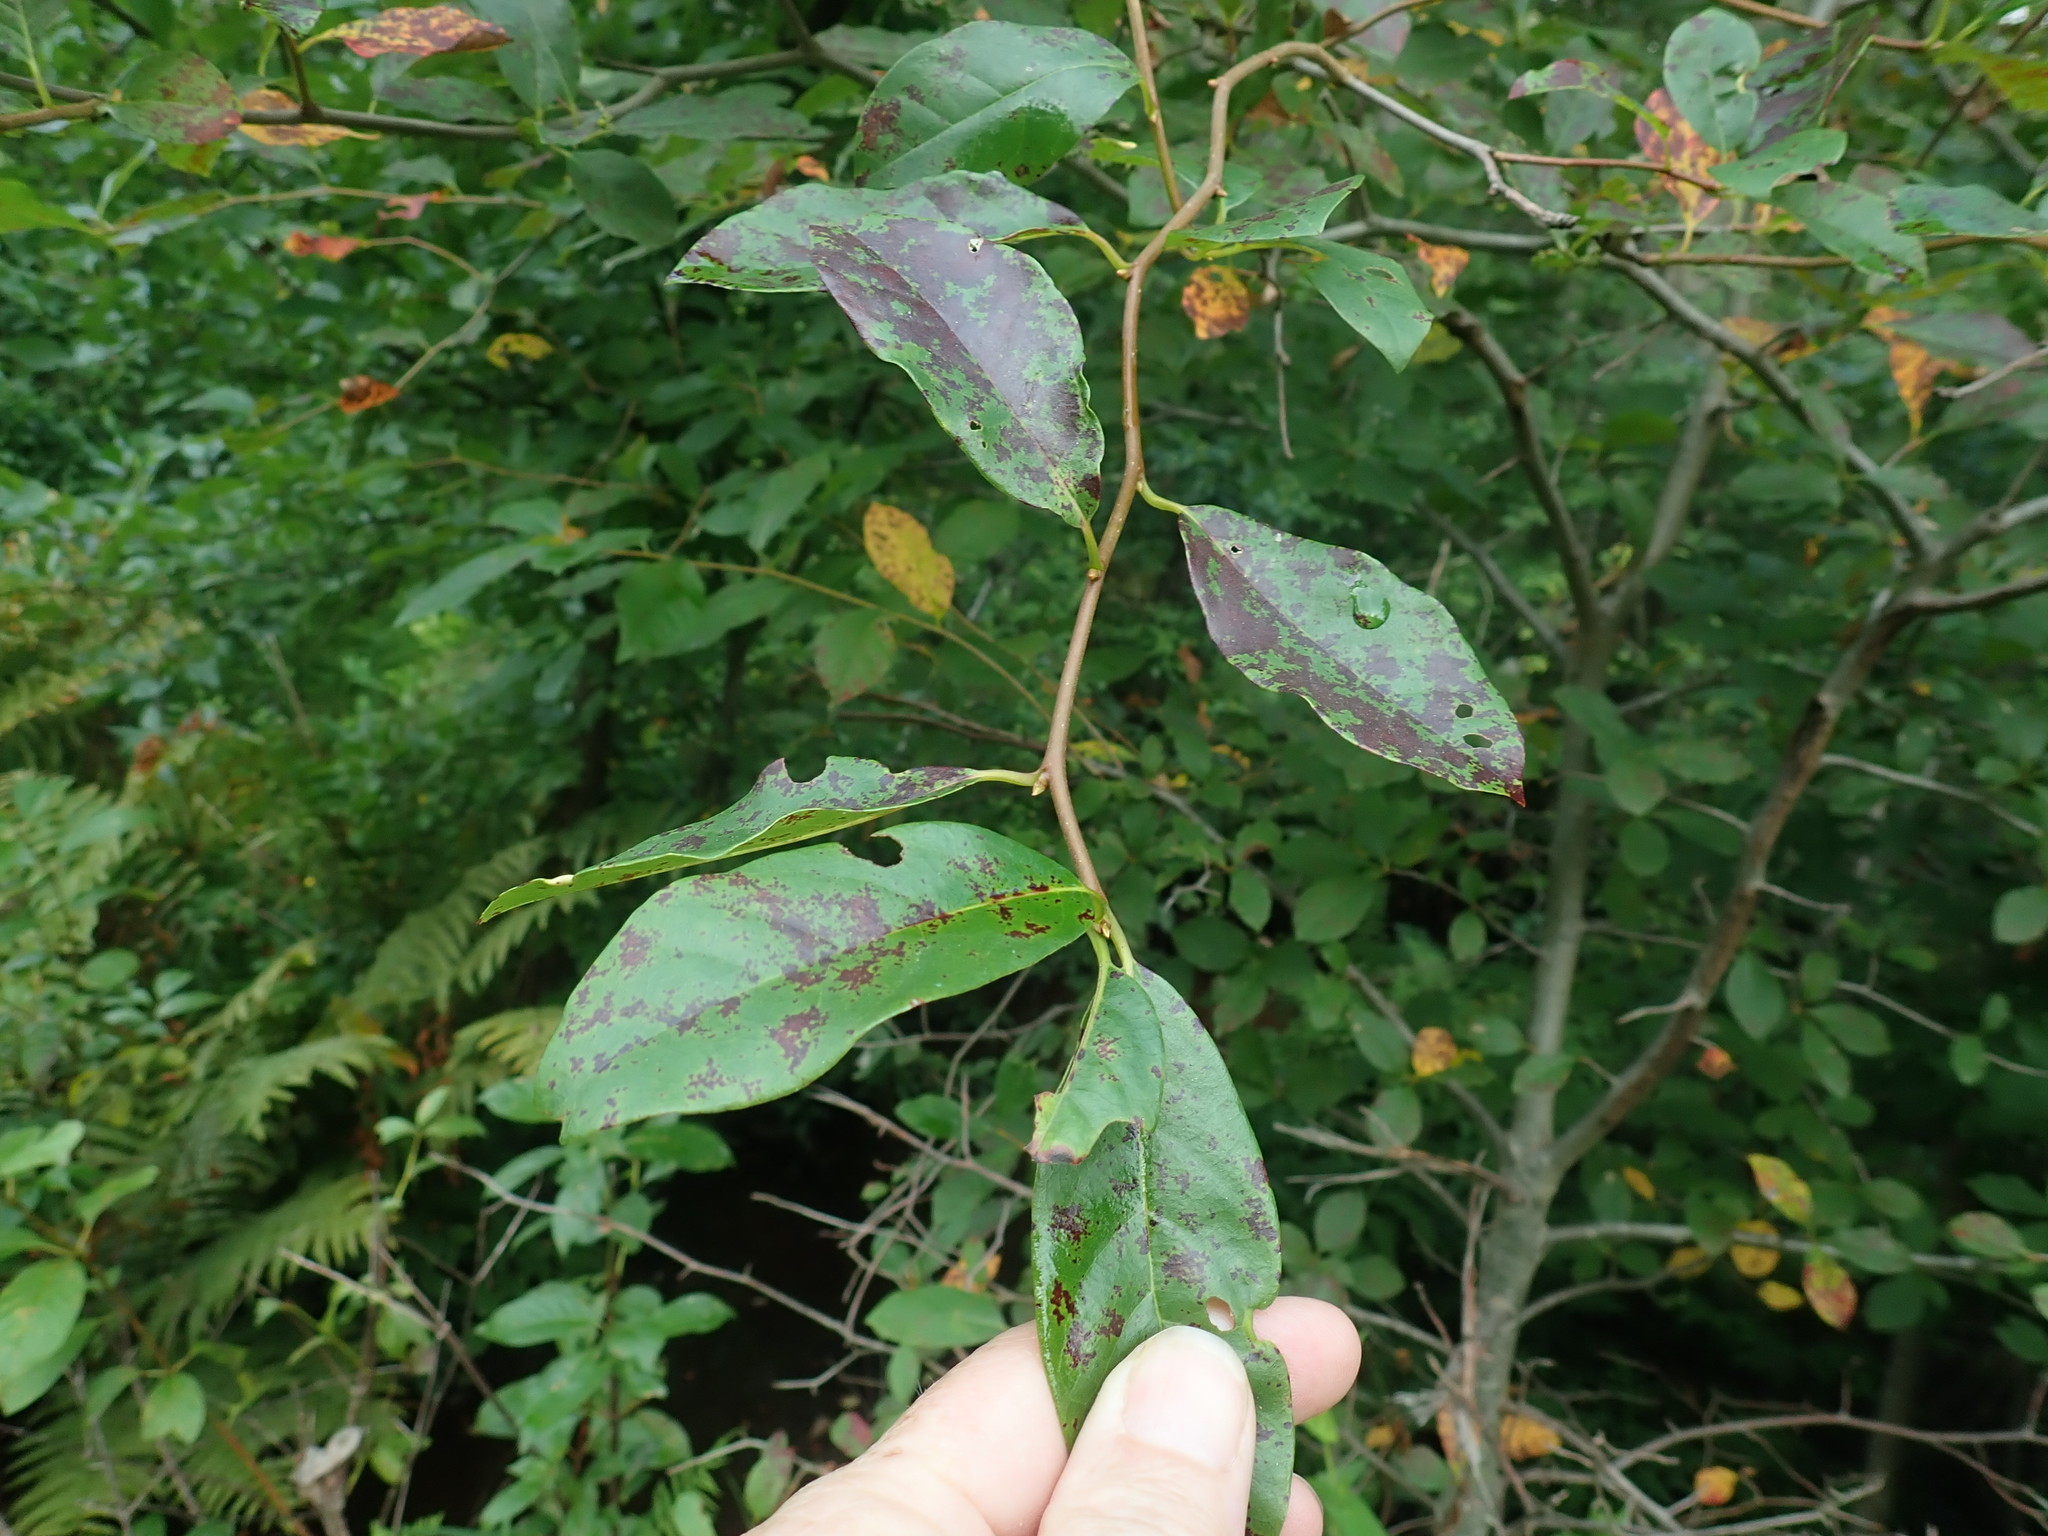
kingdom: Plantae
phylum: Tracheophyta
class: Magnoliopsida
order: Cornales
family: Nyssaceae
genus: Nyssa
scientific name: Nyssa sylvatica
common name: Black tupelo
